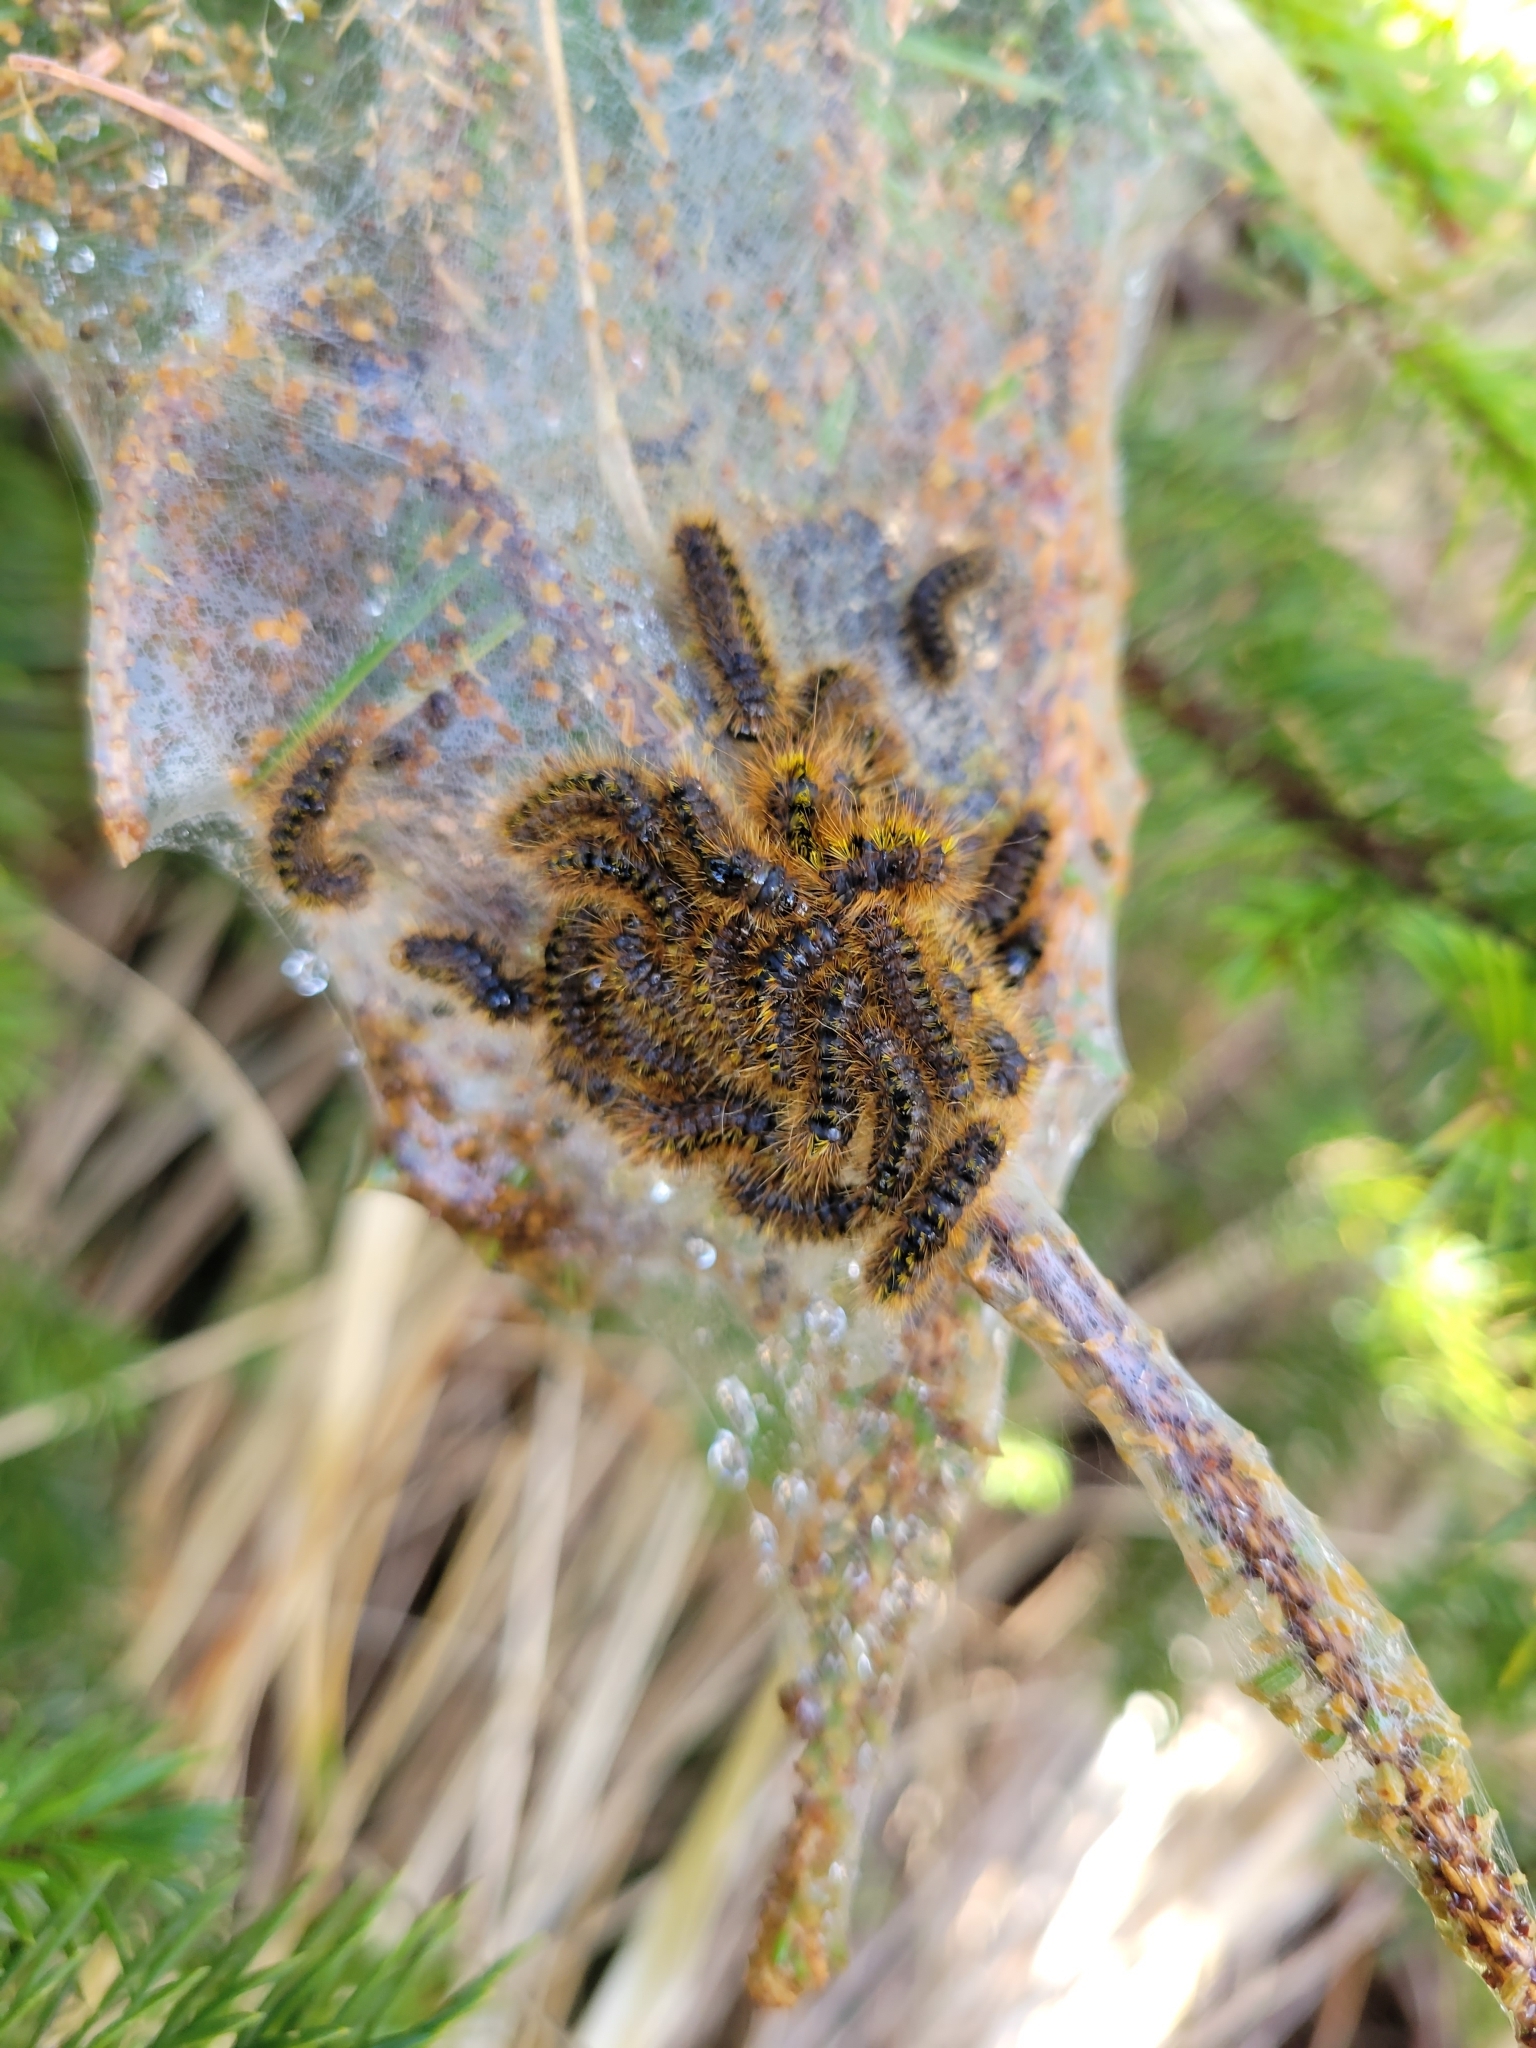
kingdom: Animalia
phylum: Arthropoda
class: Insecta
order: Lepidoptera
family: Erebidae
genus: Lophocampa
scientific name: Lophocampa argentata
